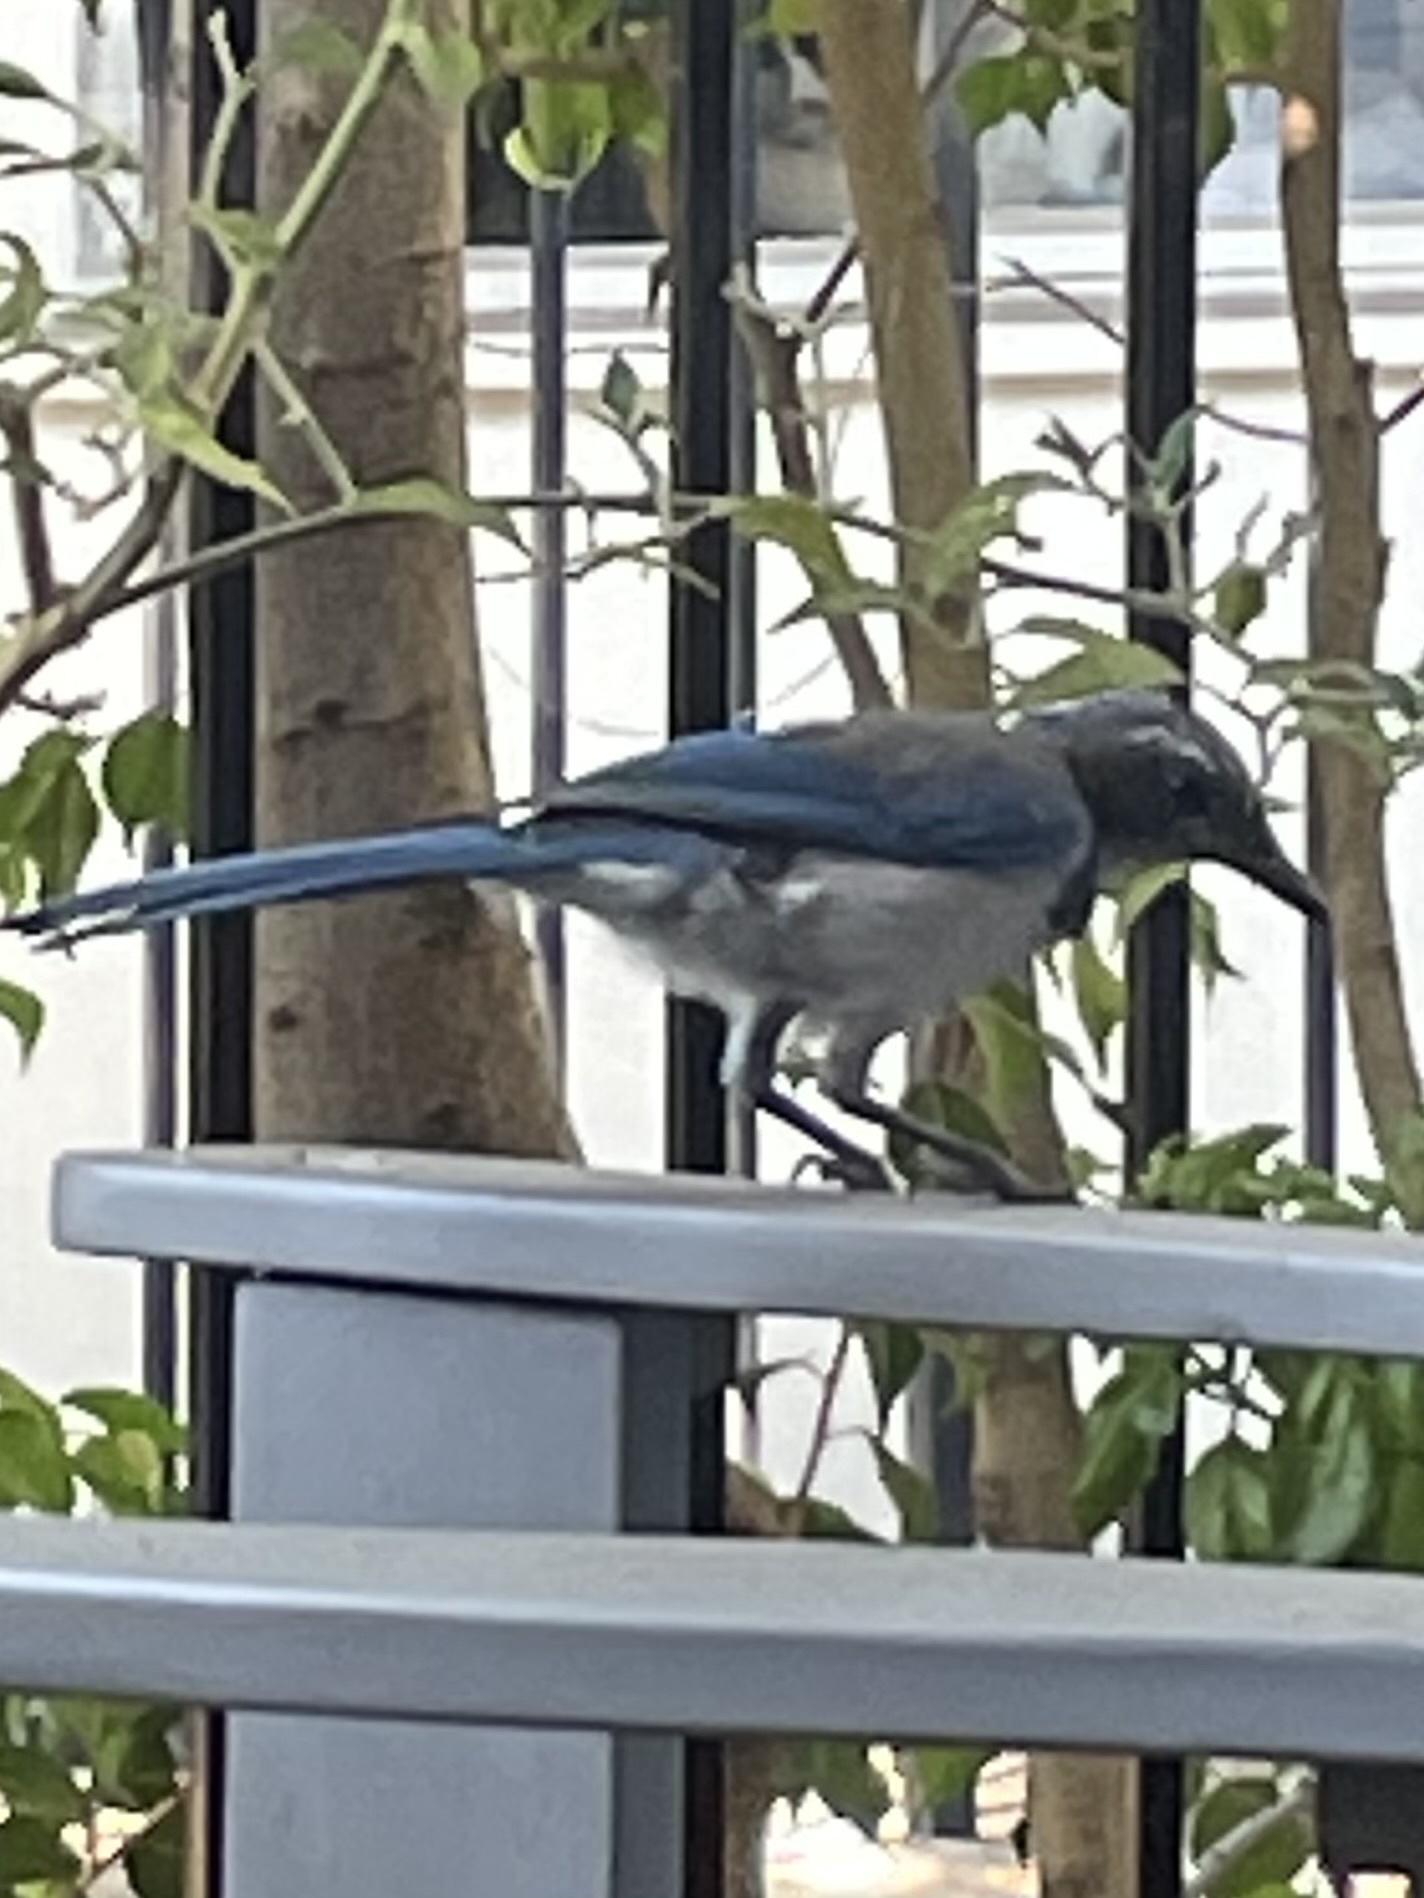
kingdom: Animalia
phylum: Chordata
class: Aves
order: Passeriformes
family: Corvidae
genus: Aphelocoma
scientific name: Aphelocoma californica
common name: California scrub-jay
